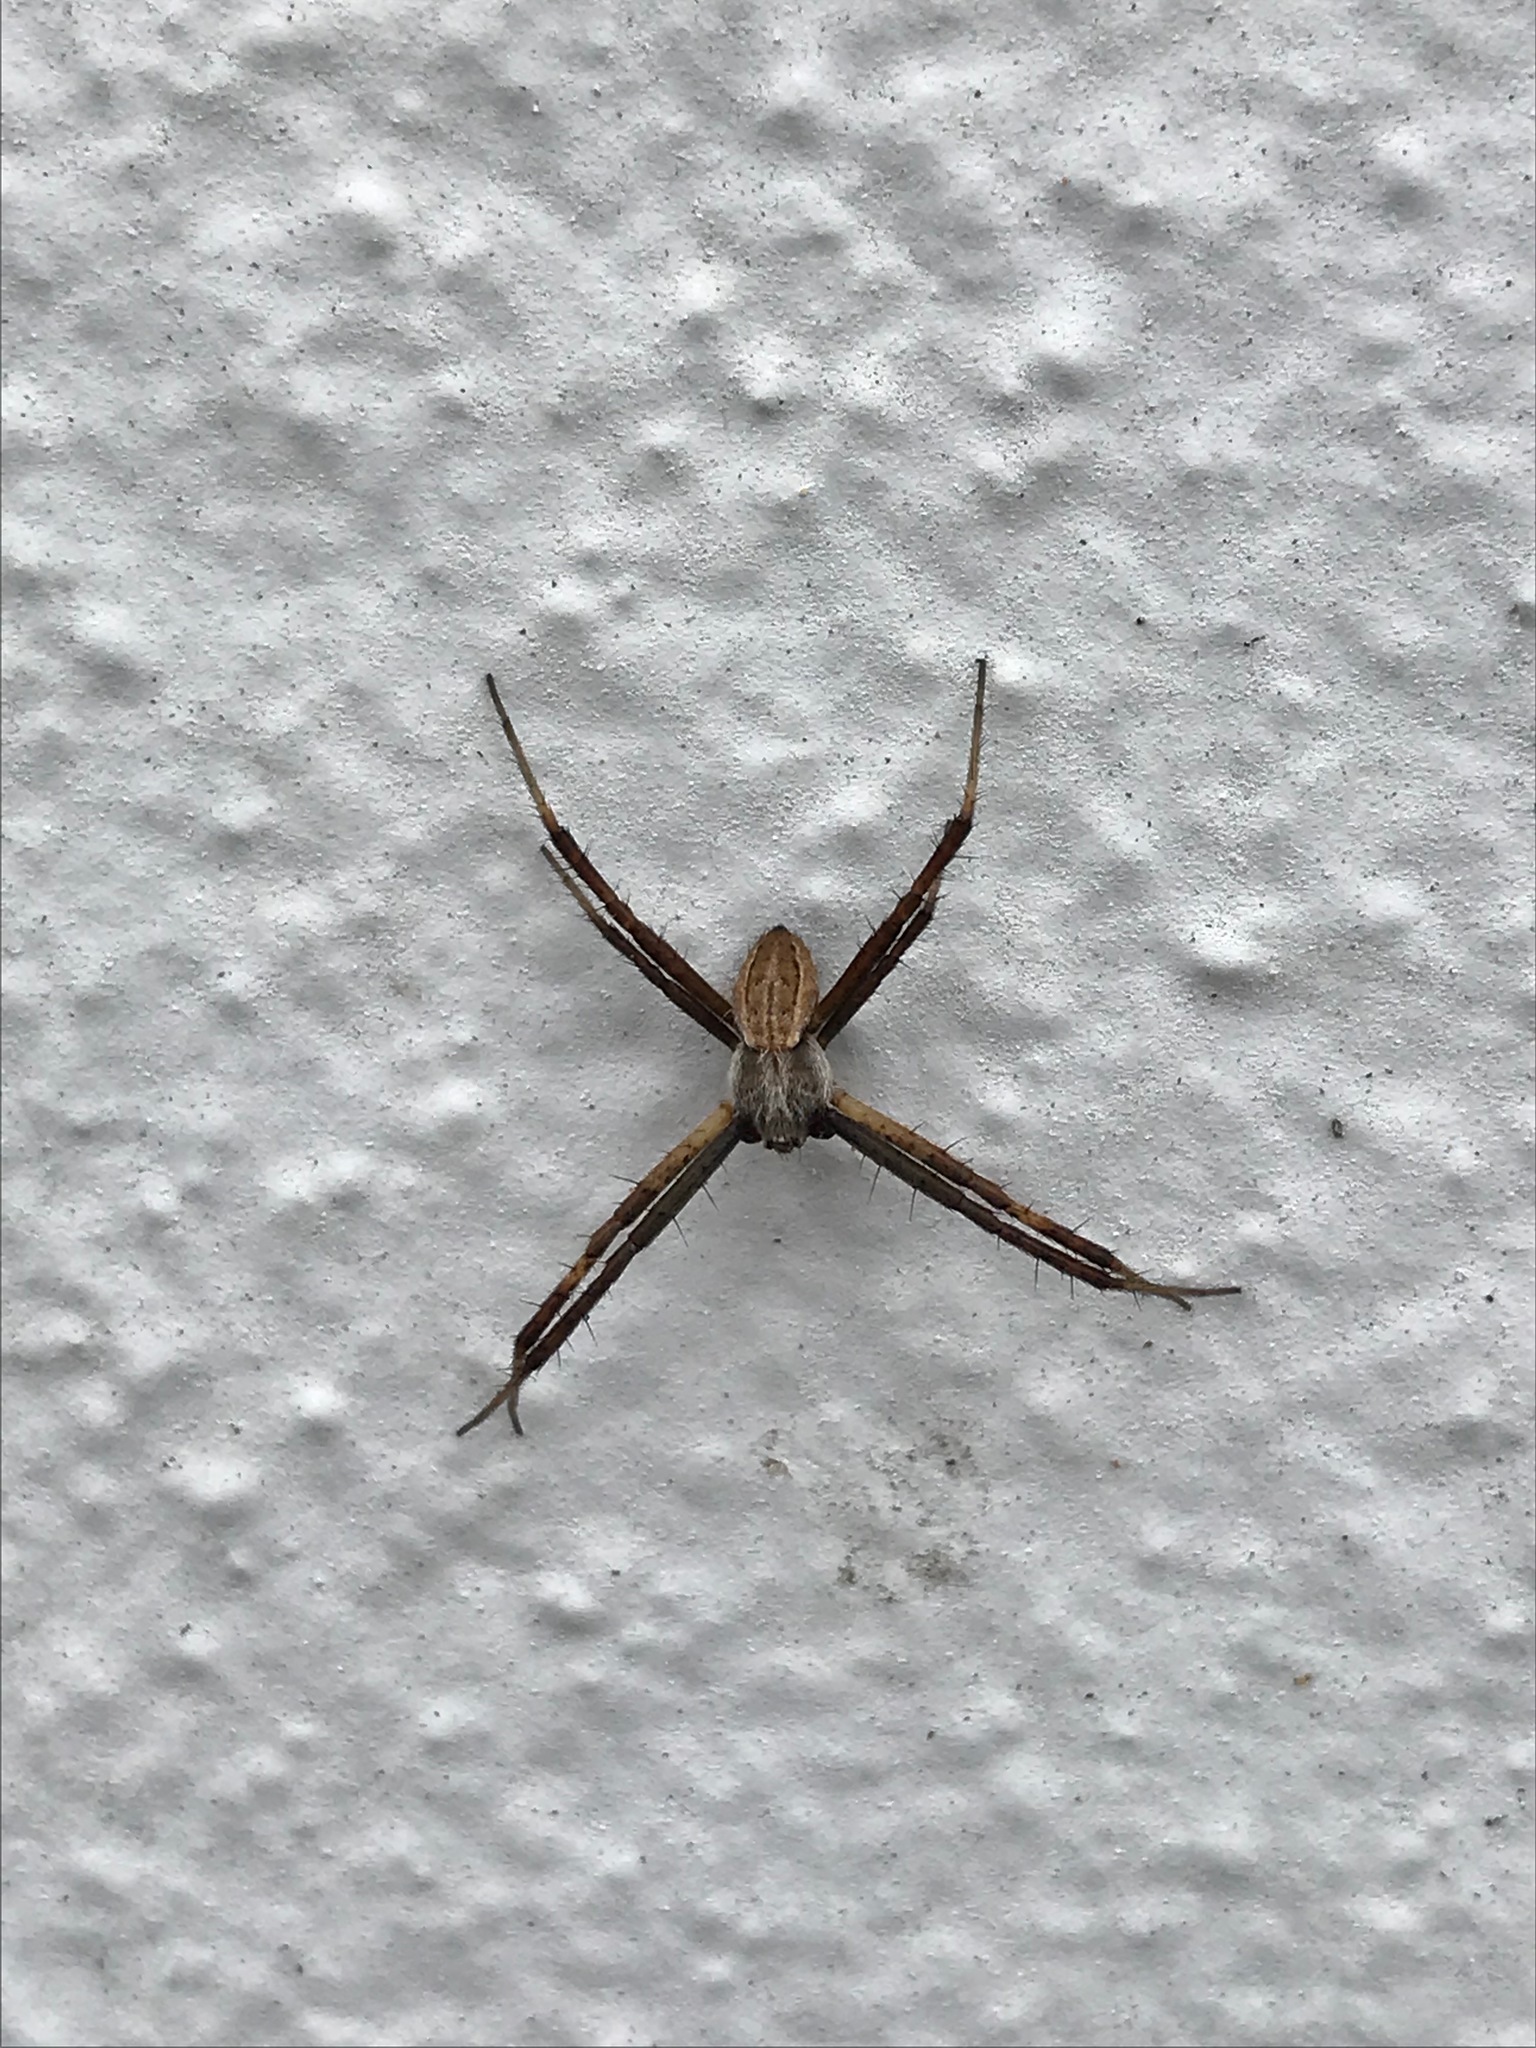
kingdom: Animalia
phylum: Arthropoda
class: Arachnida
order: Araneae
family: Araneidae
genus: Argiope
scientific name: Argiope argentata
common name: Orb weavers
